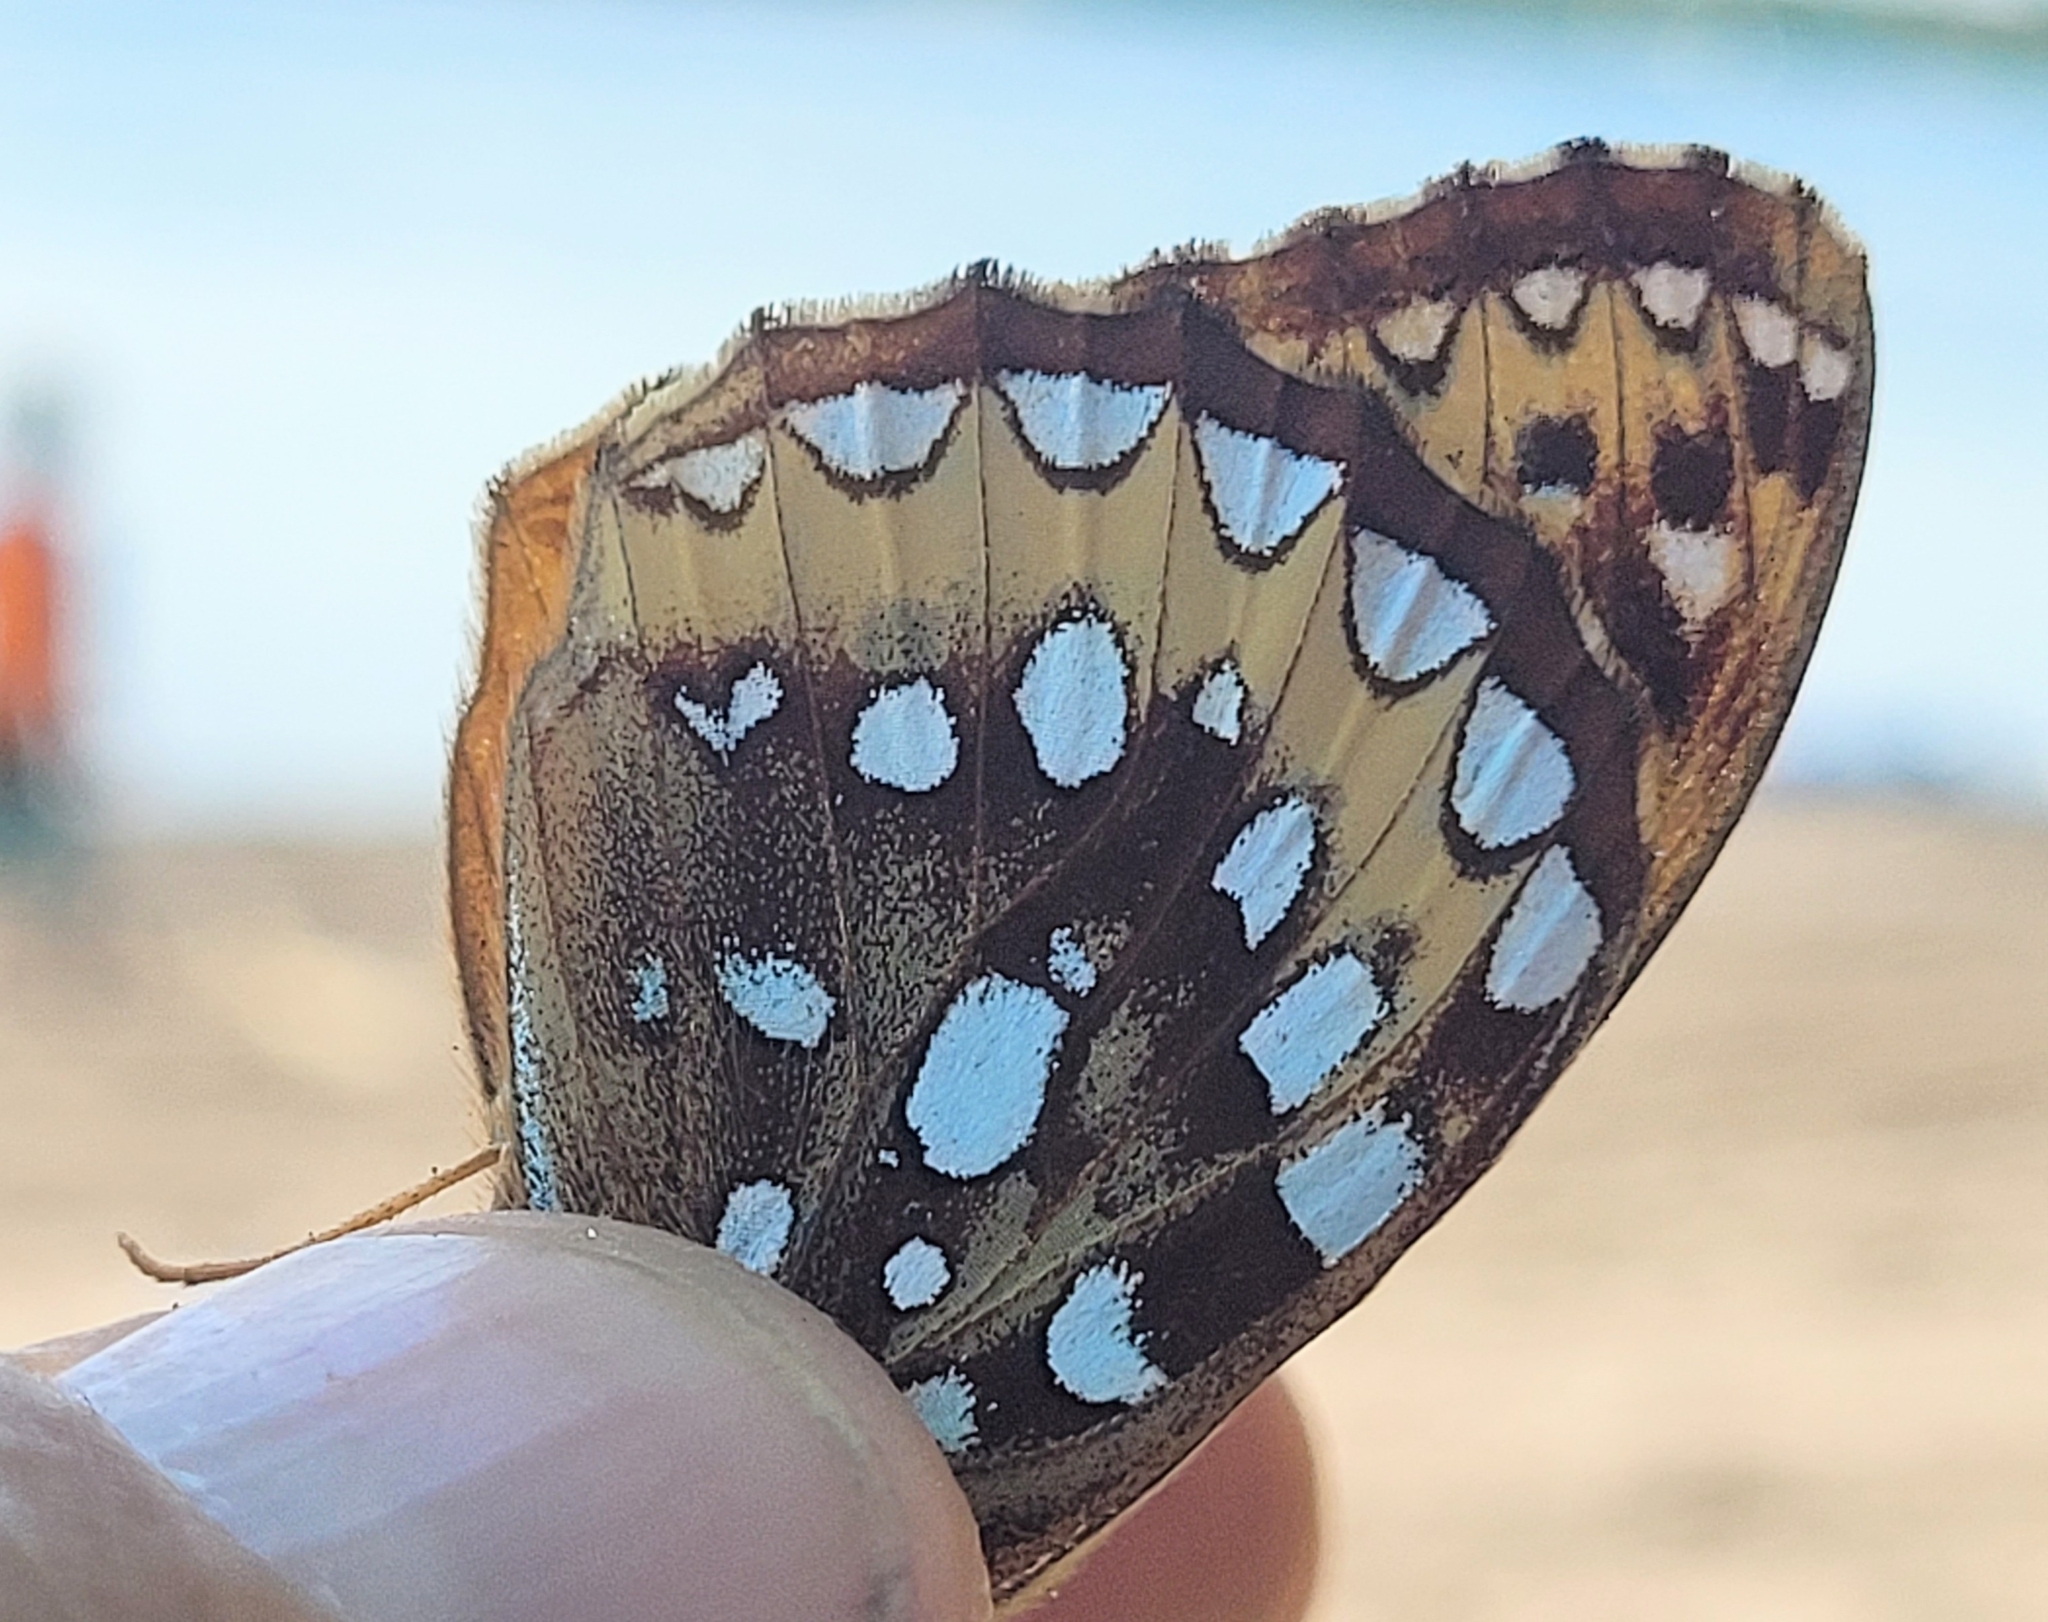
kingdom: Animalia
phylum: Arthropoda
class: Insecta
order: Lepidoptera
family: Nymphalidae
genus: Speyeria
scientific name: Speyeria cybele
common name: Great spangled fritillary
